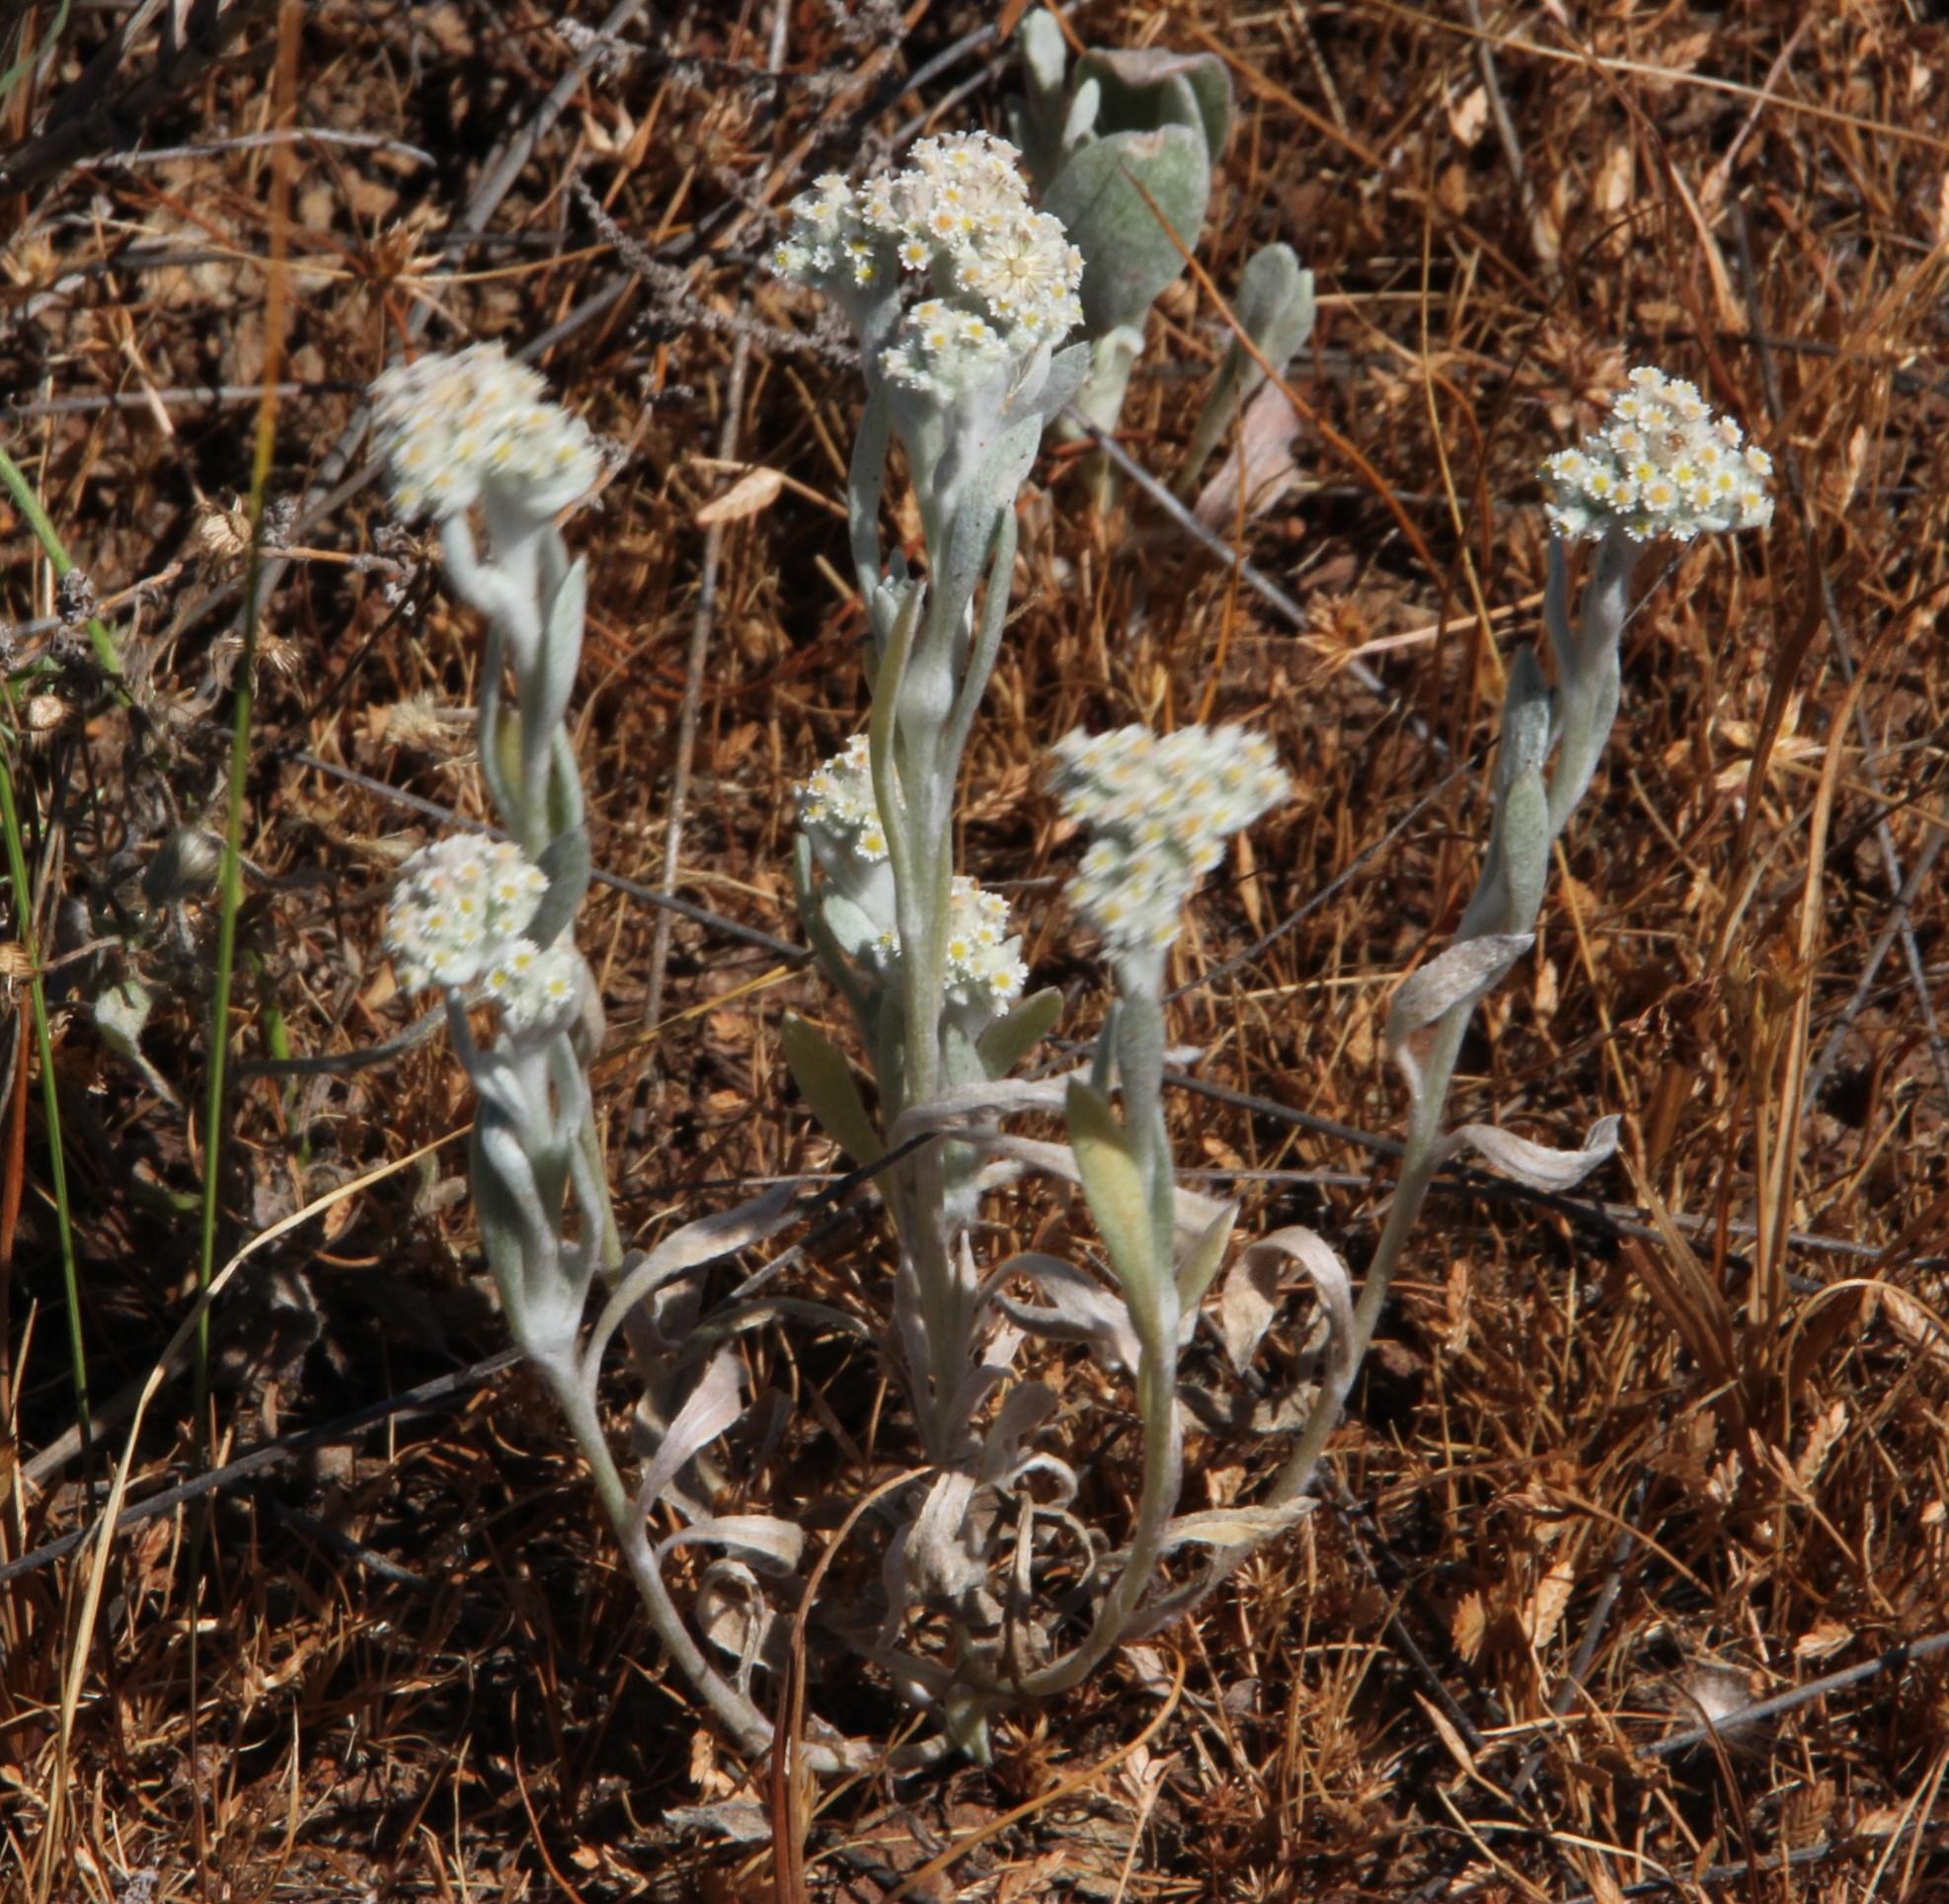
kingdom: Plantae
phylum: Tracheophyta
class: Magnoliopsida
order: Asterales
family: Asteraceae
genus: Vellereophyton
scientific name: Vellereophyton dealbatum
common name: White-cudweed
